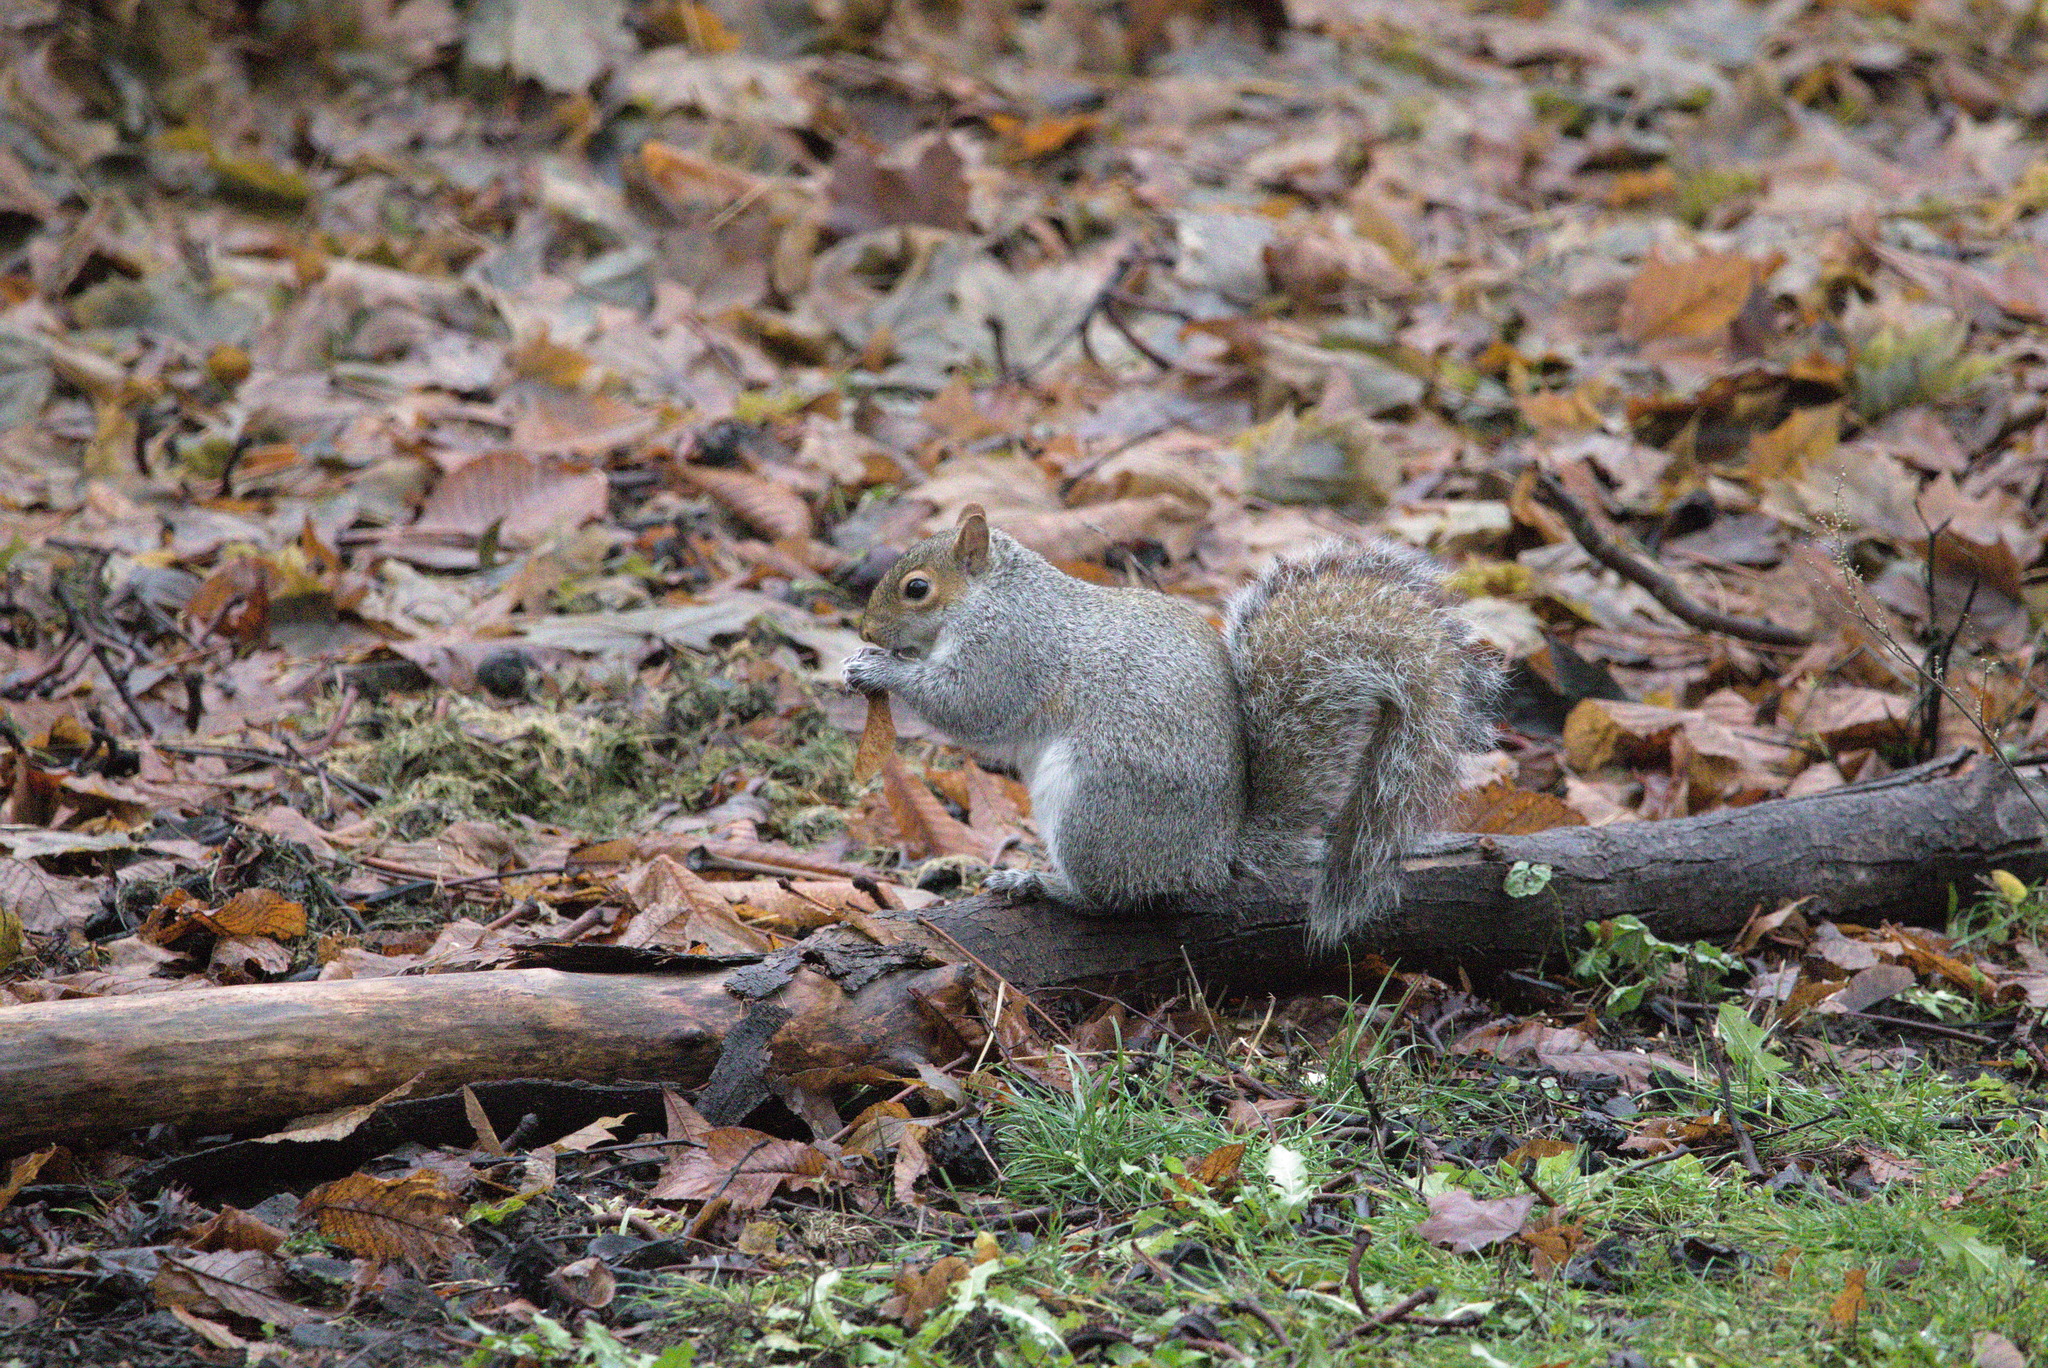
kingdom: Animalia
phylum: Chordata
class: Mammalia
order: Rodentia
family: Sciuridae
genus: Sciurus
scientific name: Sciurus carolinensis
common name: Eastern gray squirrel
